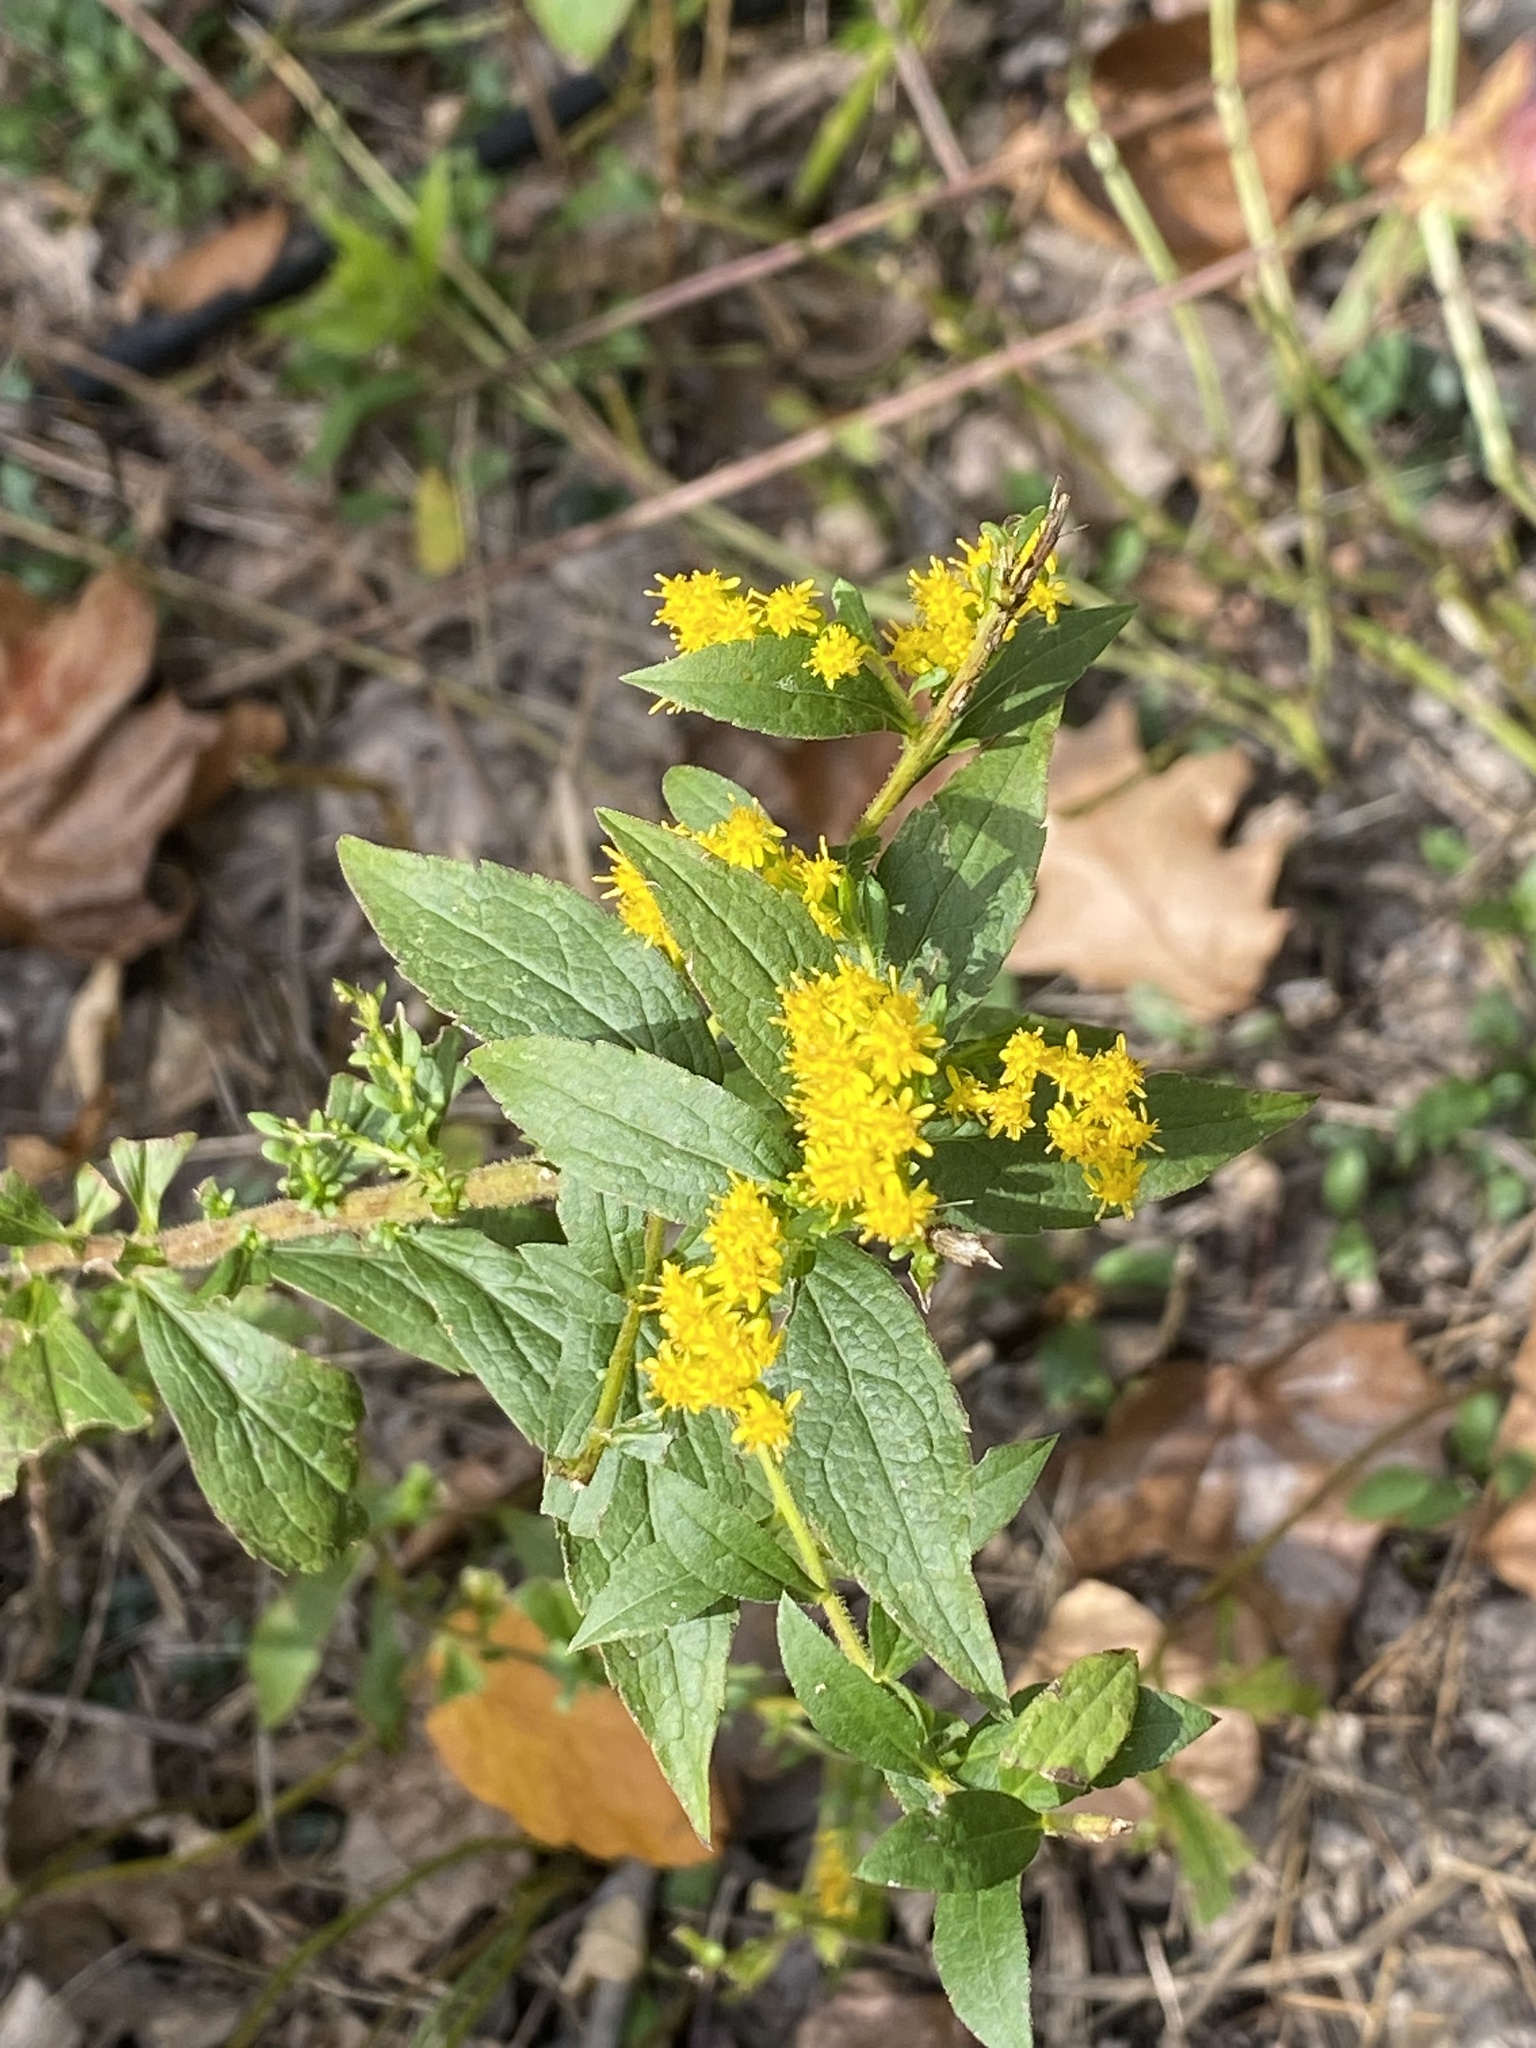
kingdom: Plantae
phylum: Tracheophyta
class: Magnoliopsida
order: Asterales
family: Asteraceae
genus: Solidago
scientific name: Solidago rugosa
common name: Rough-stemmed goldenrod
